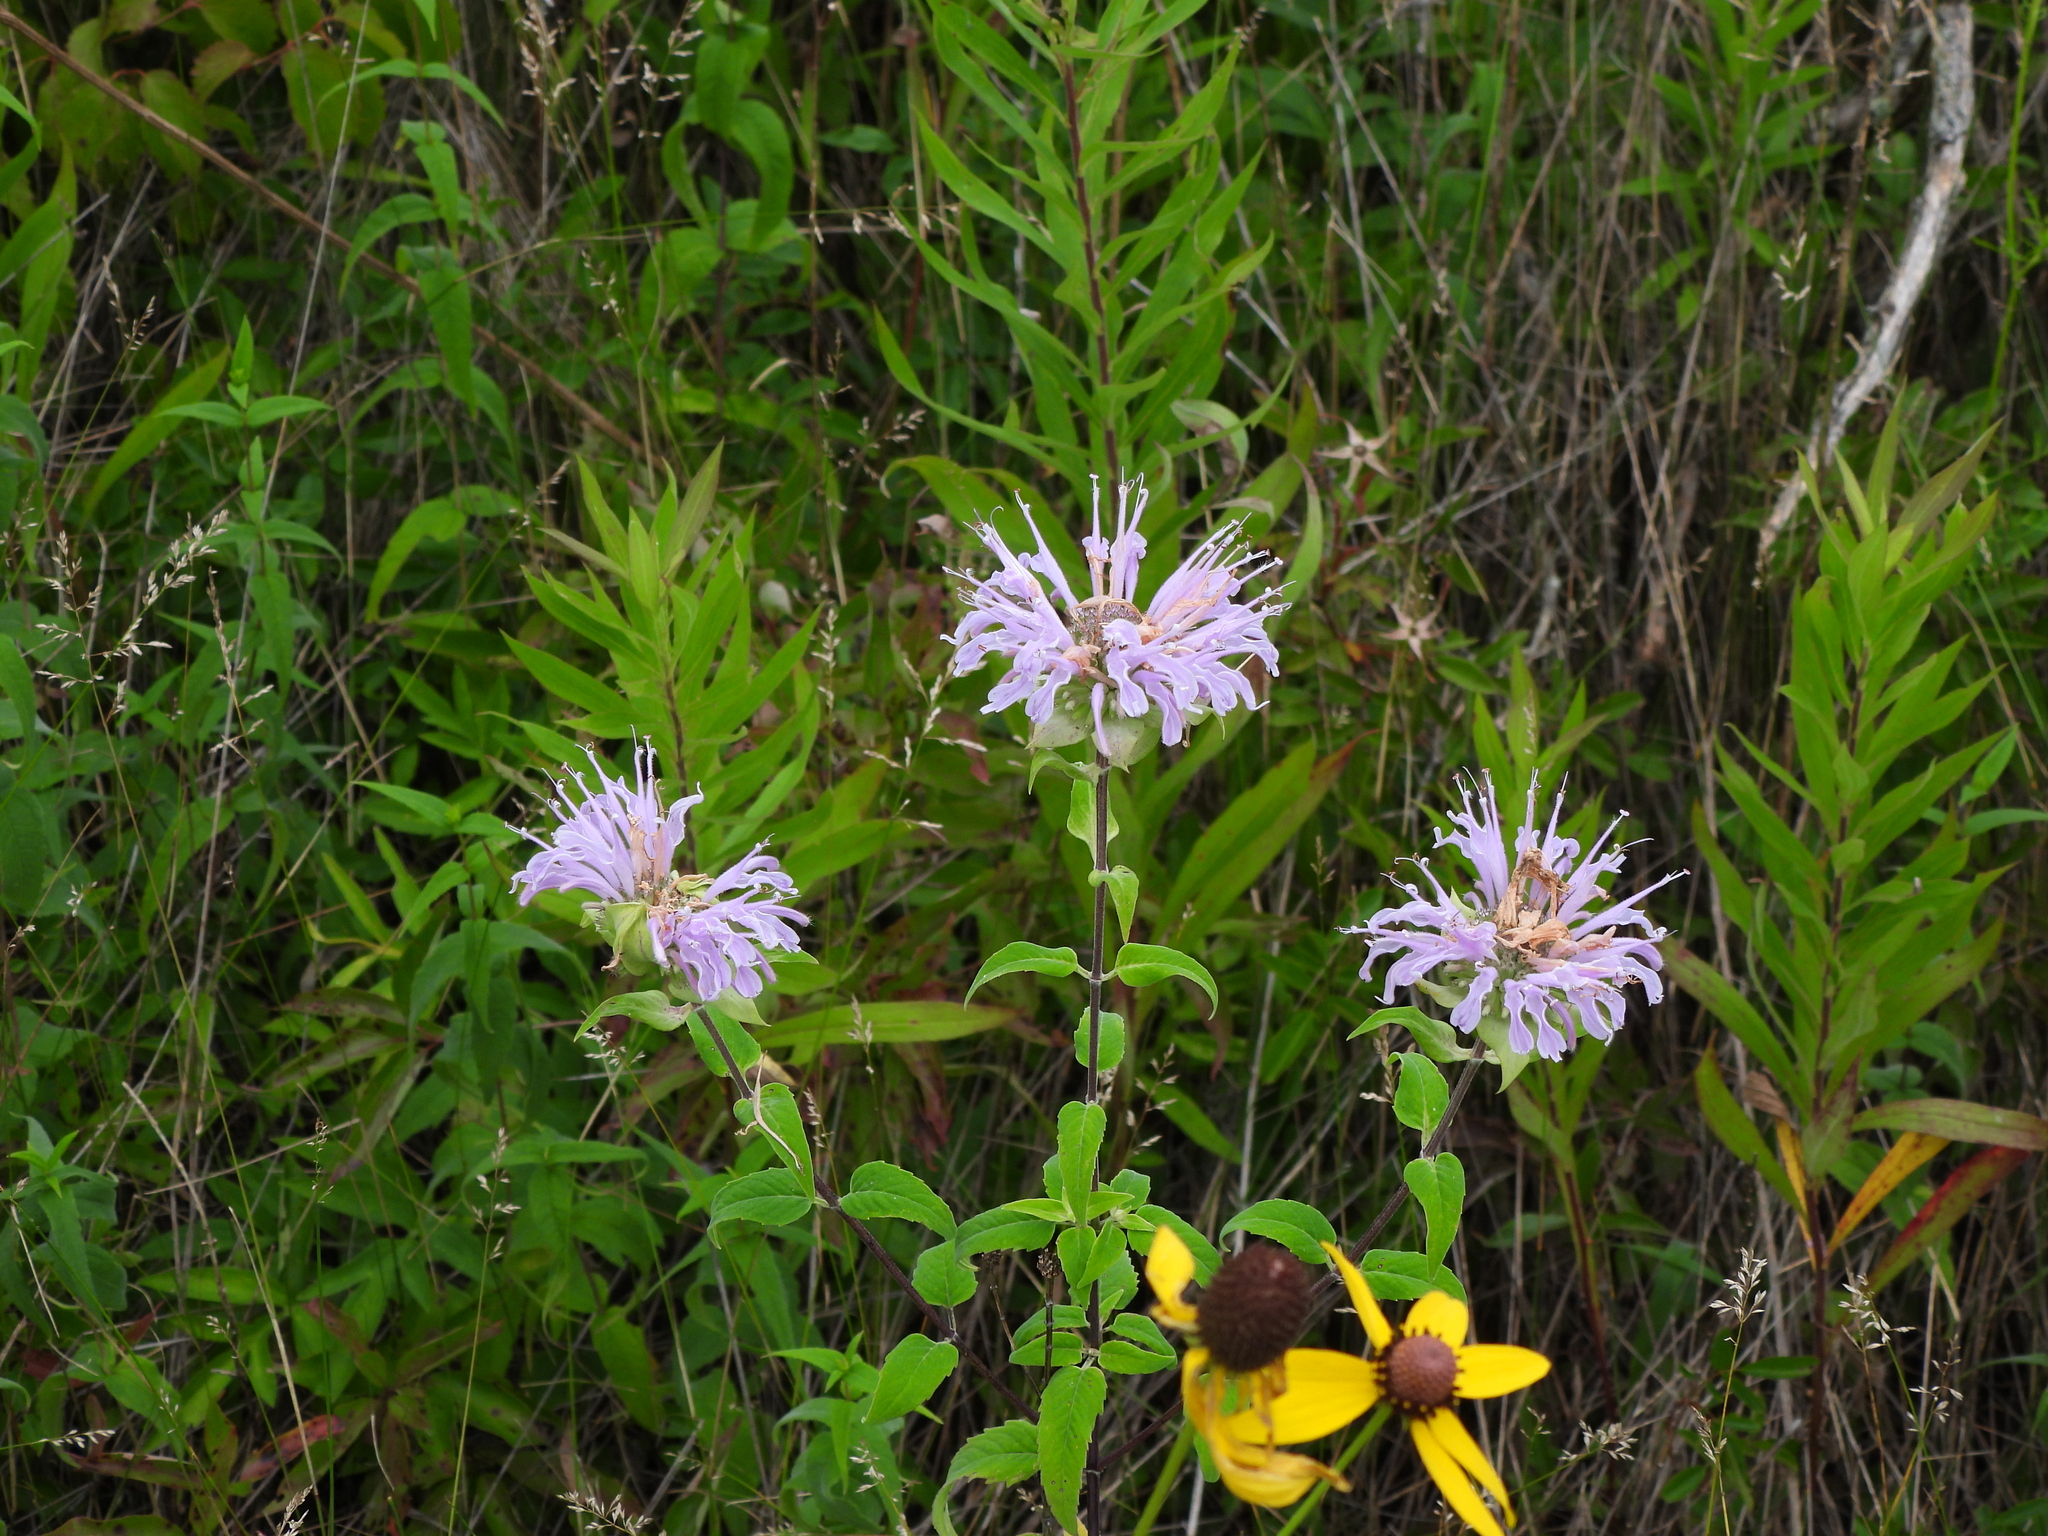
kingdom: Plantae
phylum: Tracheophyta
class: Magnoliopsida
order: Lamiales
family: Lamiaceae
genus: Monarda
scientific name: Monarda fistulosa
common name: Purple beebalm
